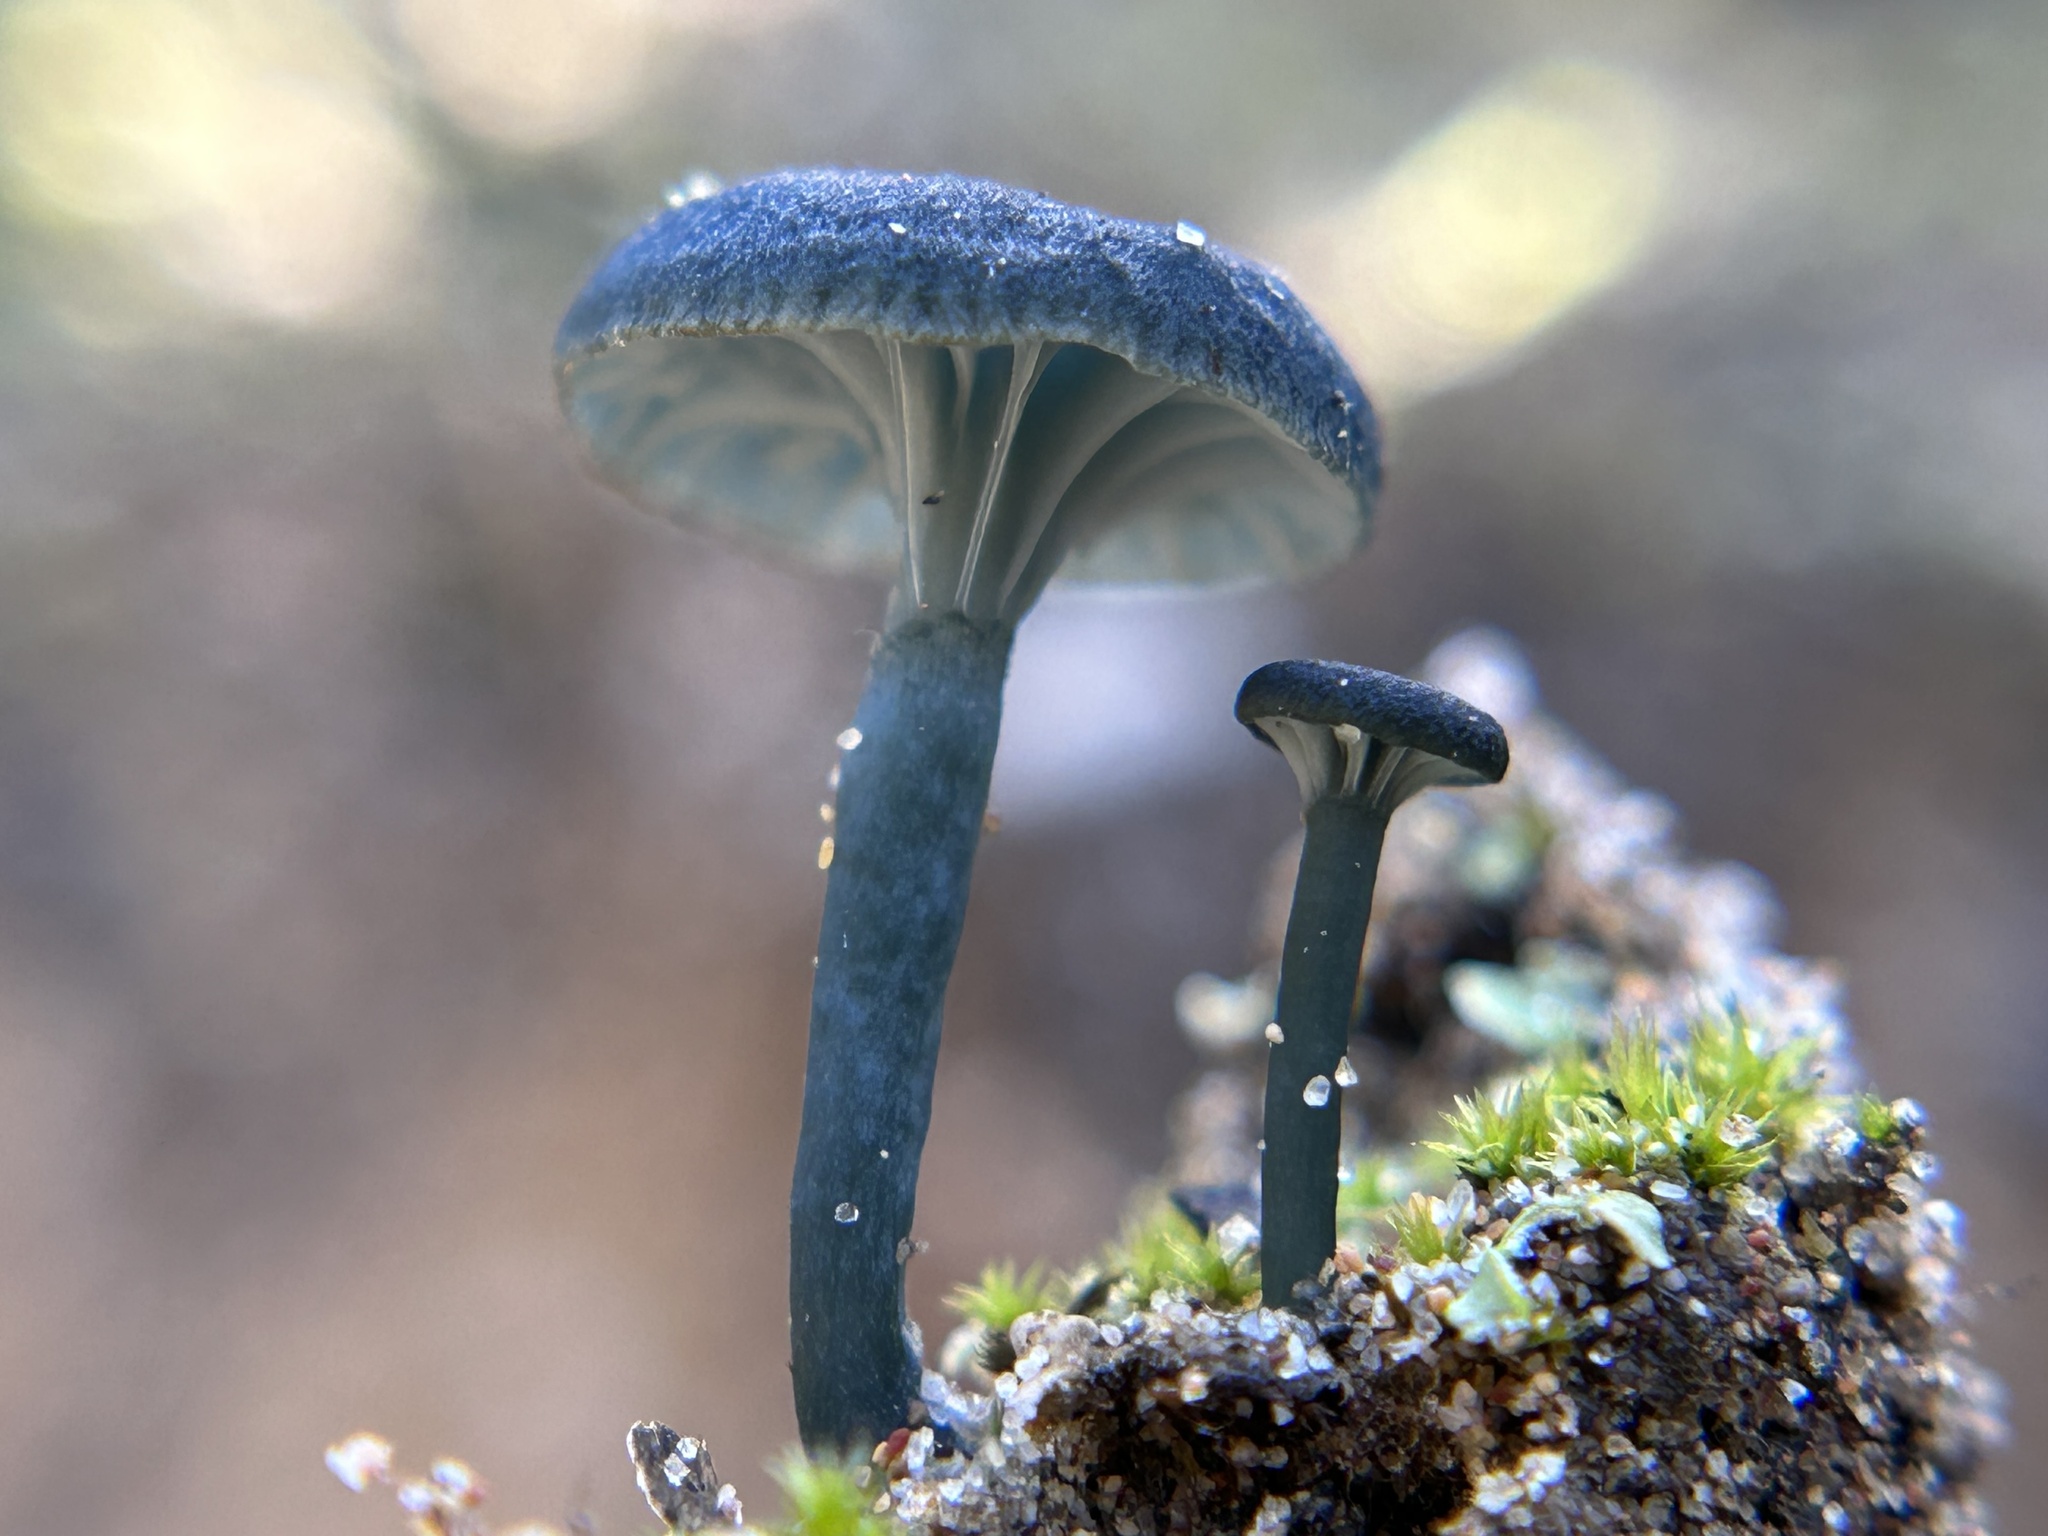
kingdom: Fungi
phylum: Basidiomycota
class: Agaricomycetes
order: Agaricales
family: Hygrophoraceae
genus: Arrhenia
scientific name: Arrhenia chlorocyanea
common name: Verdigris navel
